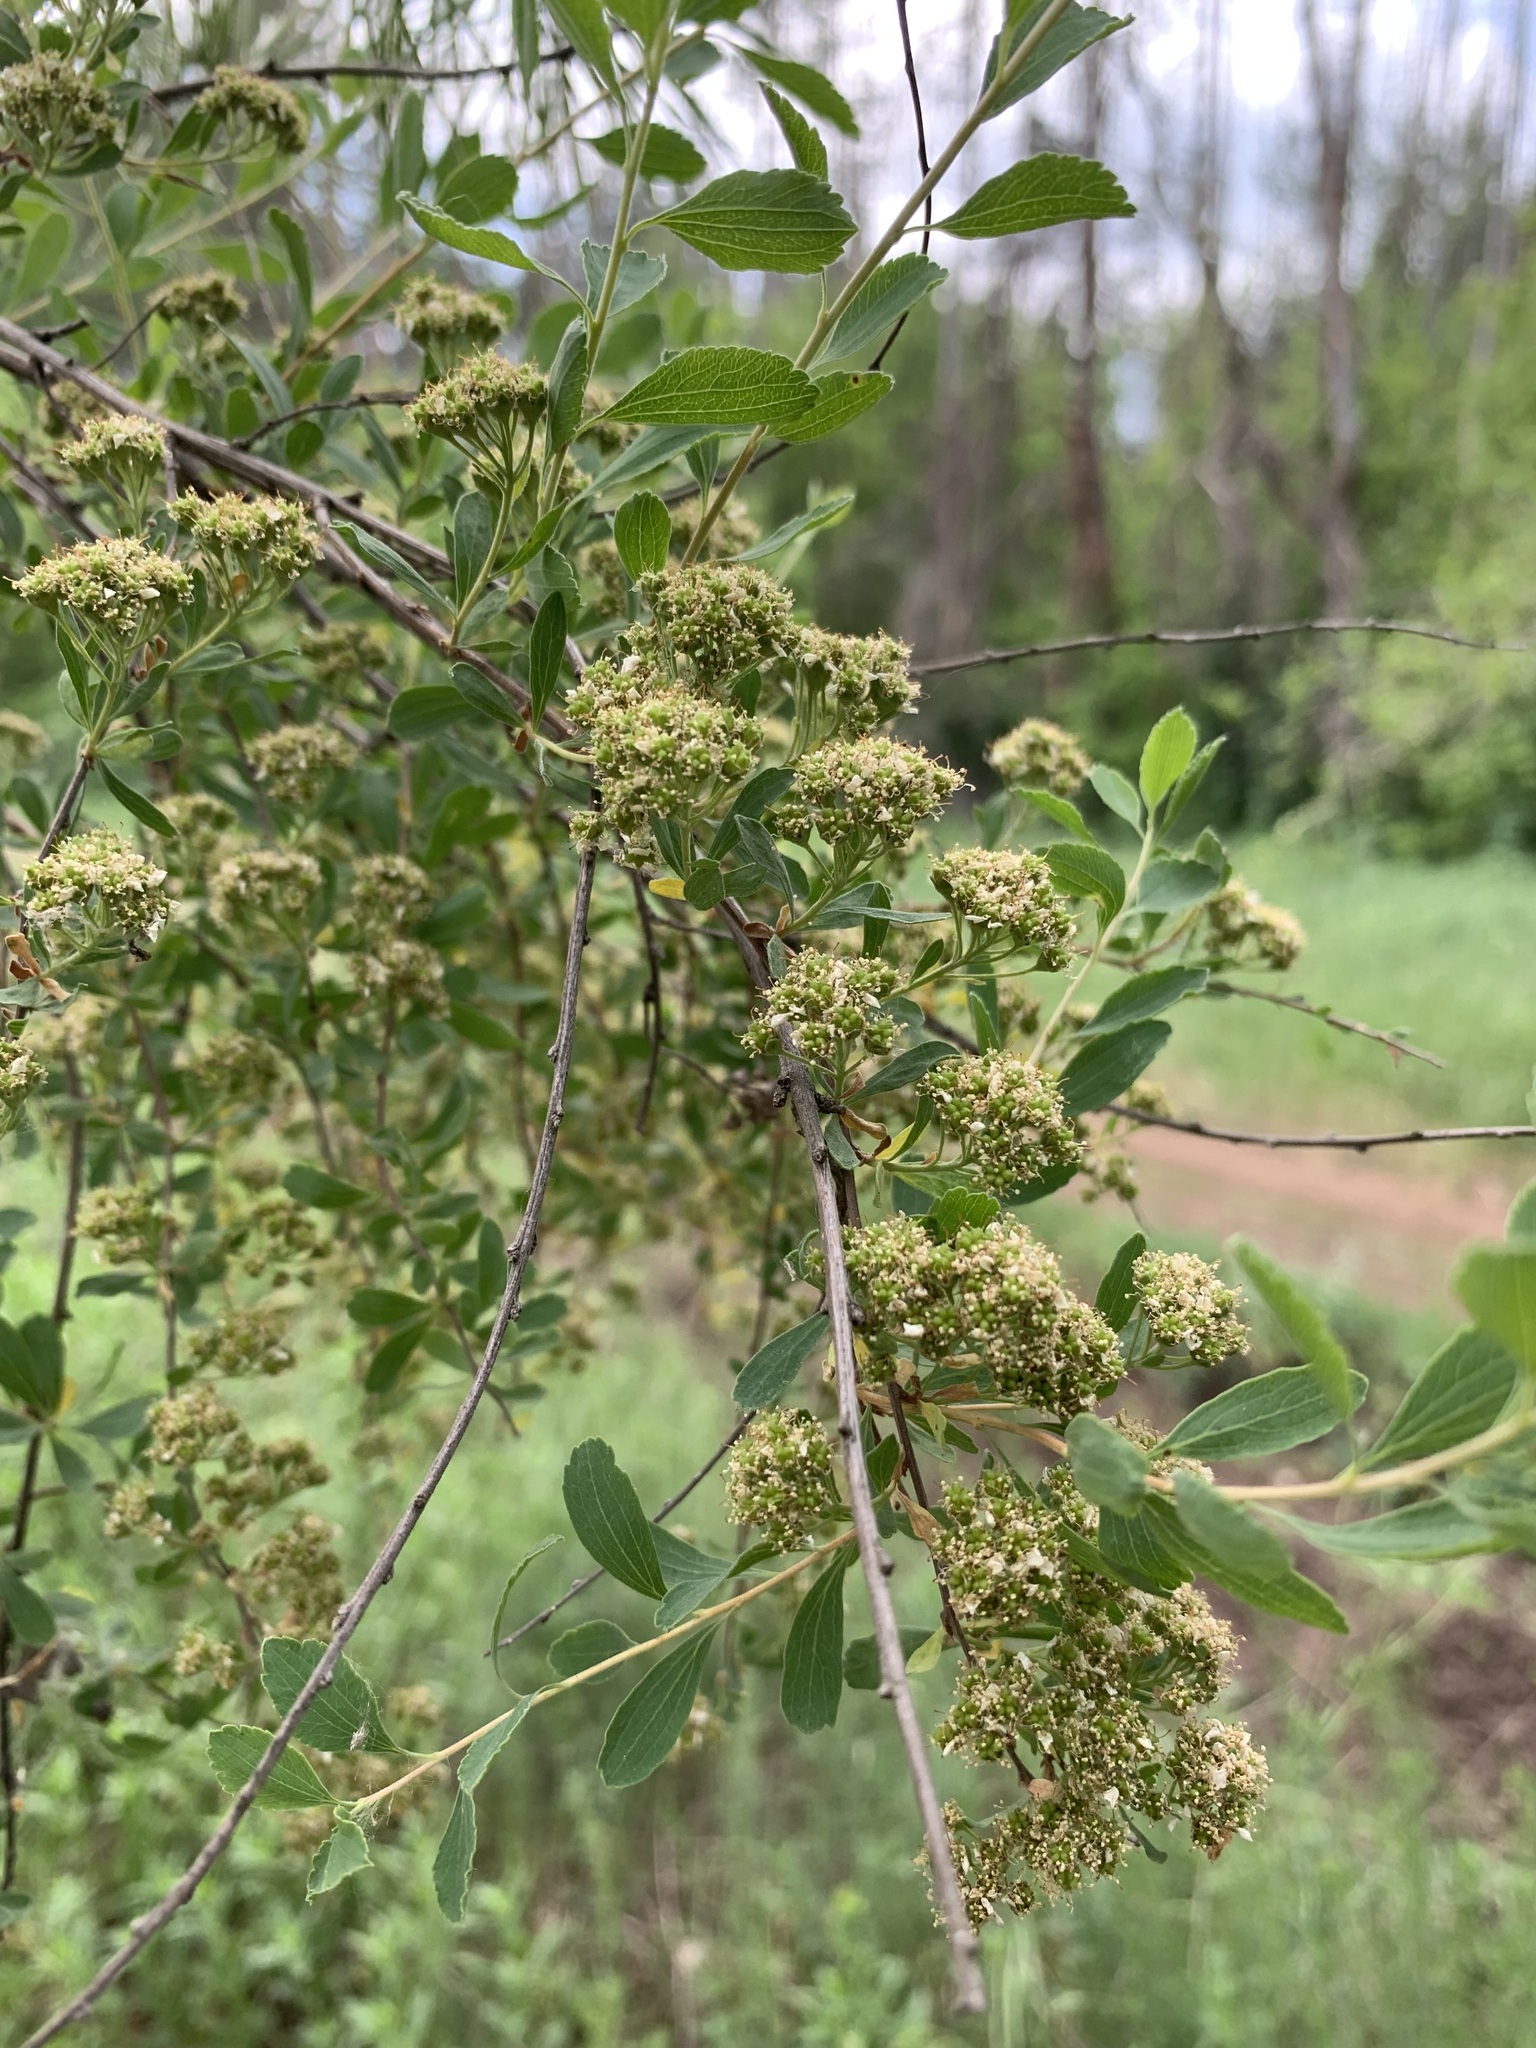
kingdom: Plantae
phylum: Tracheophyta
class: Magnoliopsida
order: Rosales
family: Rosaceae
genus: Spiraea
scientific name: Spiraea crenata
